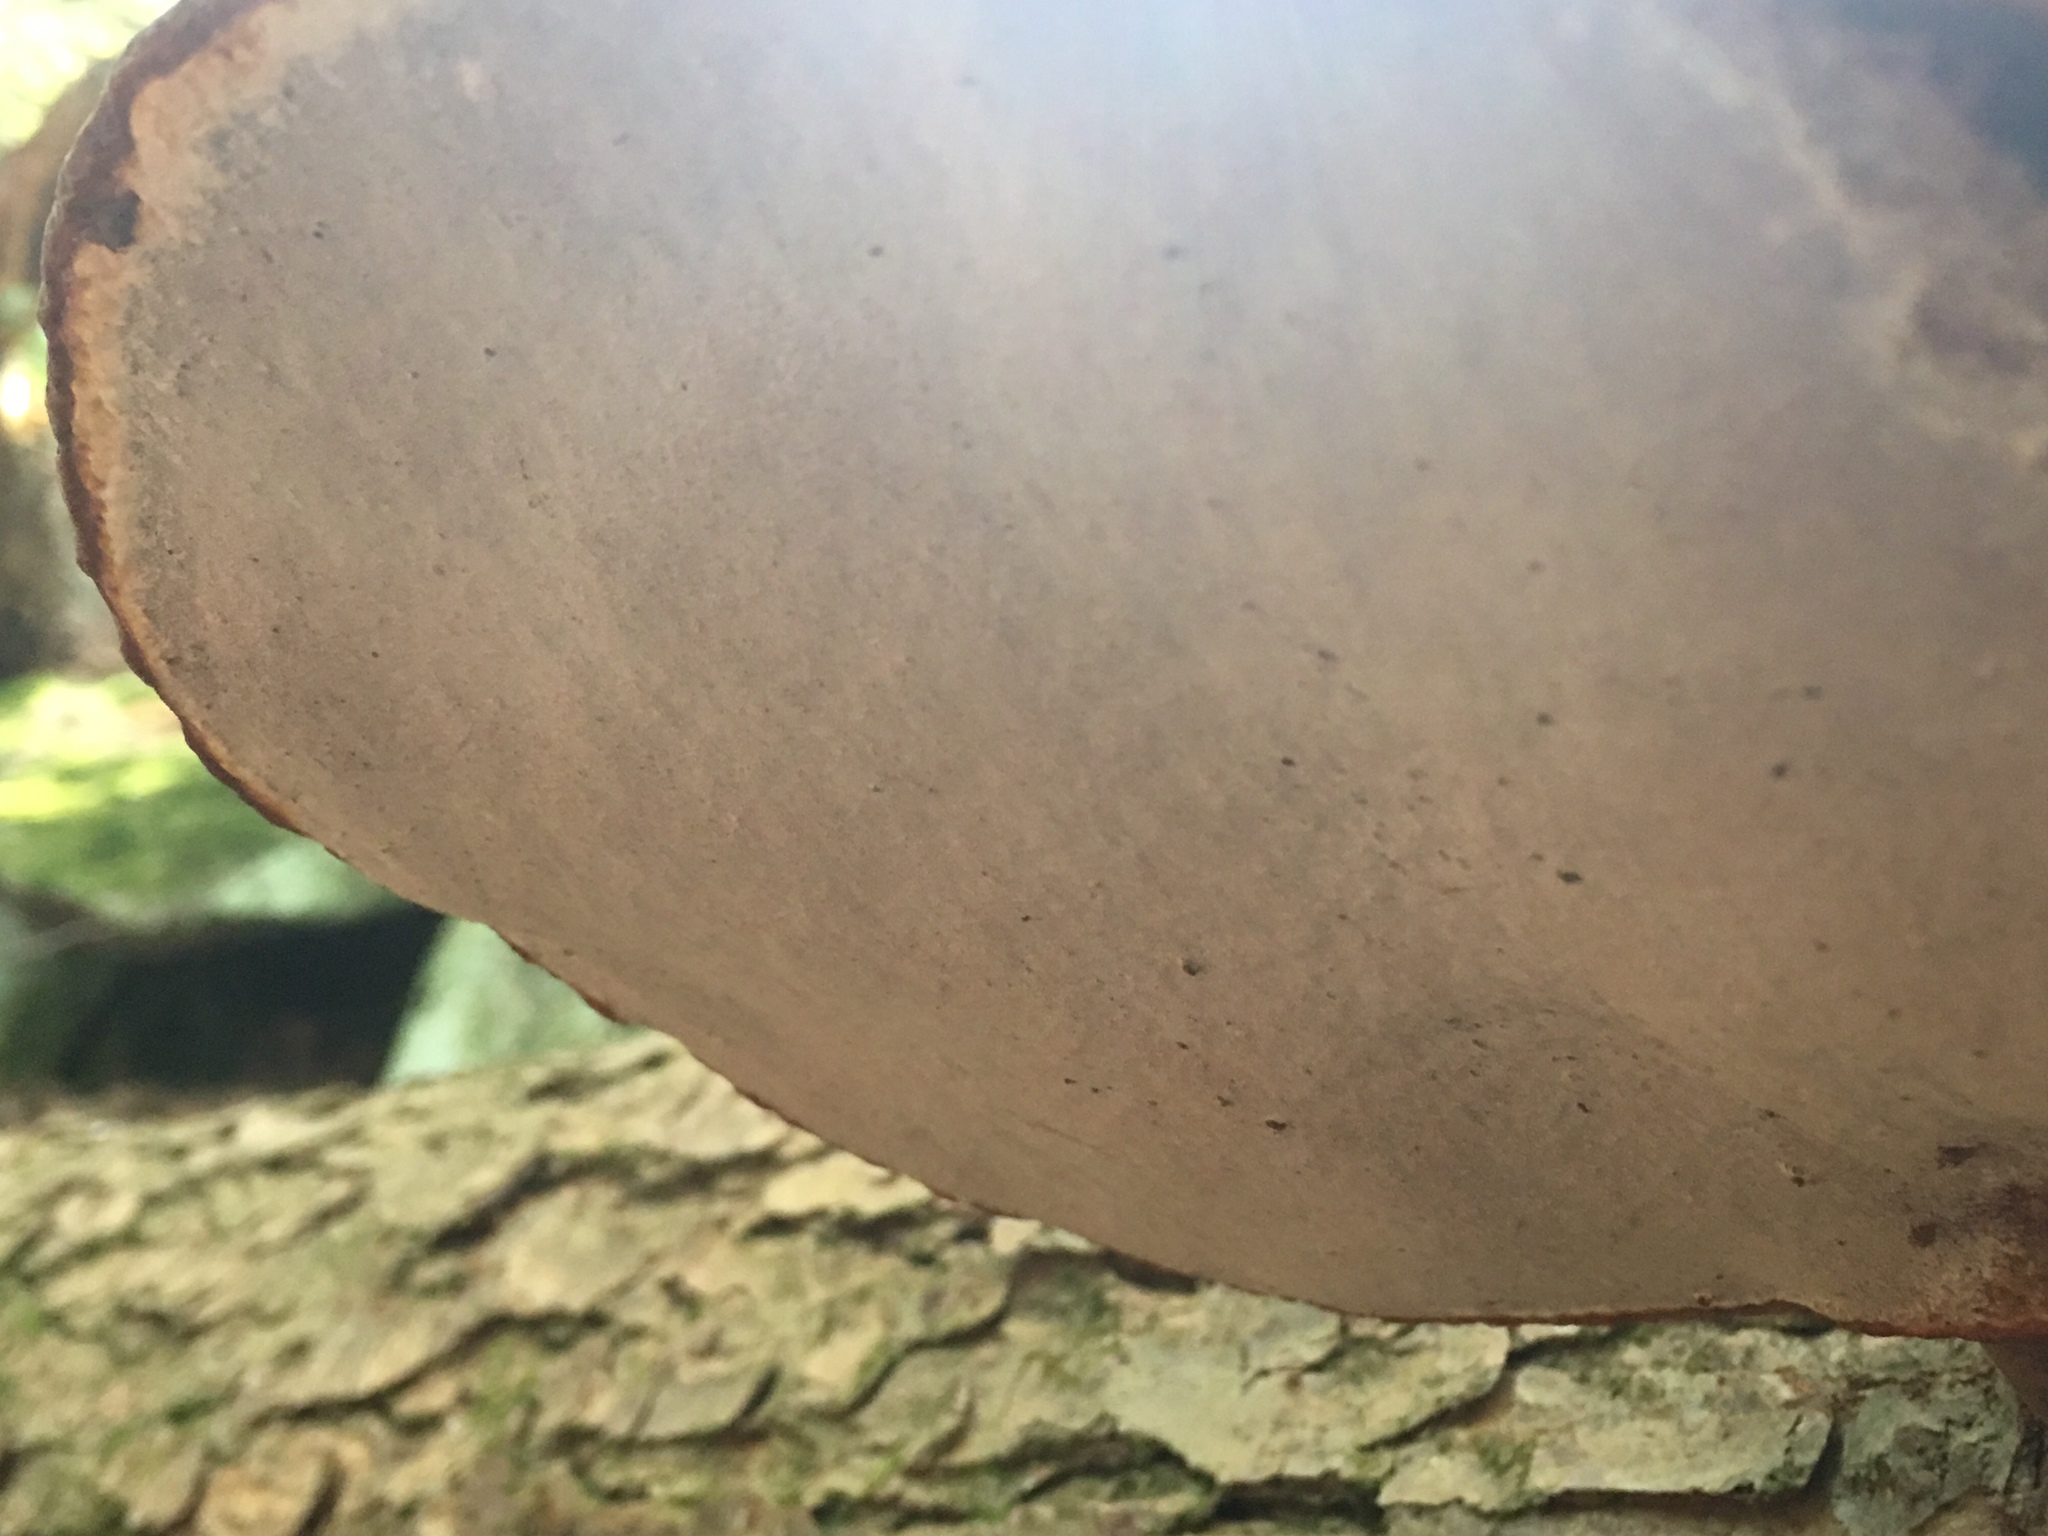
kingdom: Fungi
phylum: Basidiomycota
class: Agaricomycetes
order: Polyporales
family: Polyporaceae
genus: Ganoderma
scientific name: Ganoderma tsugae
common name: Hemlock varnish shelf
